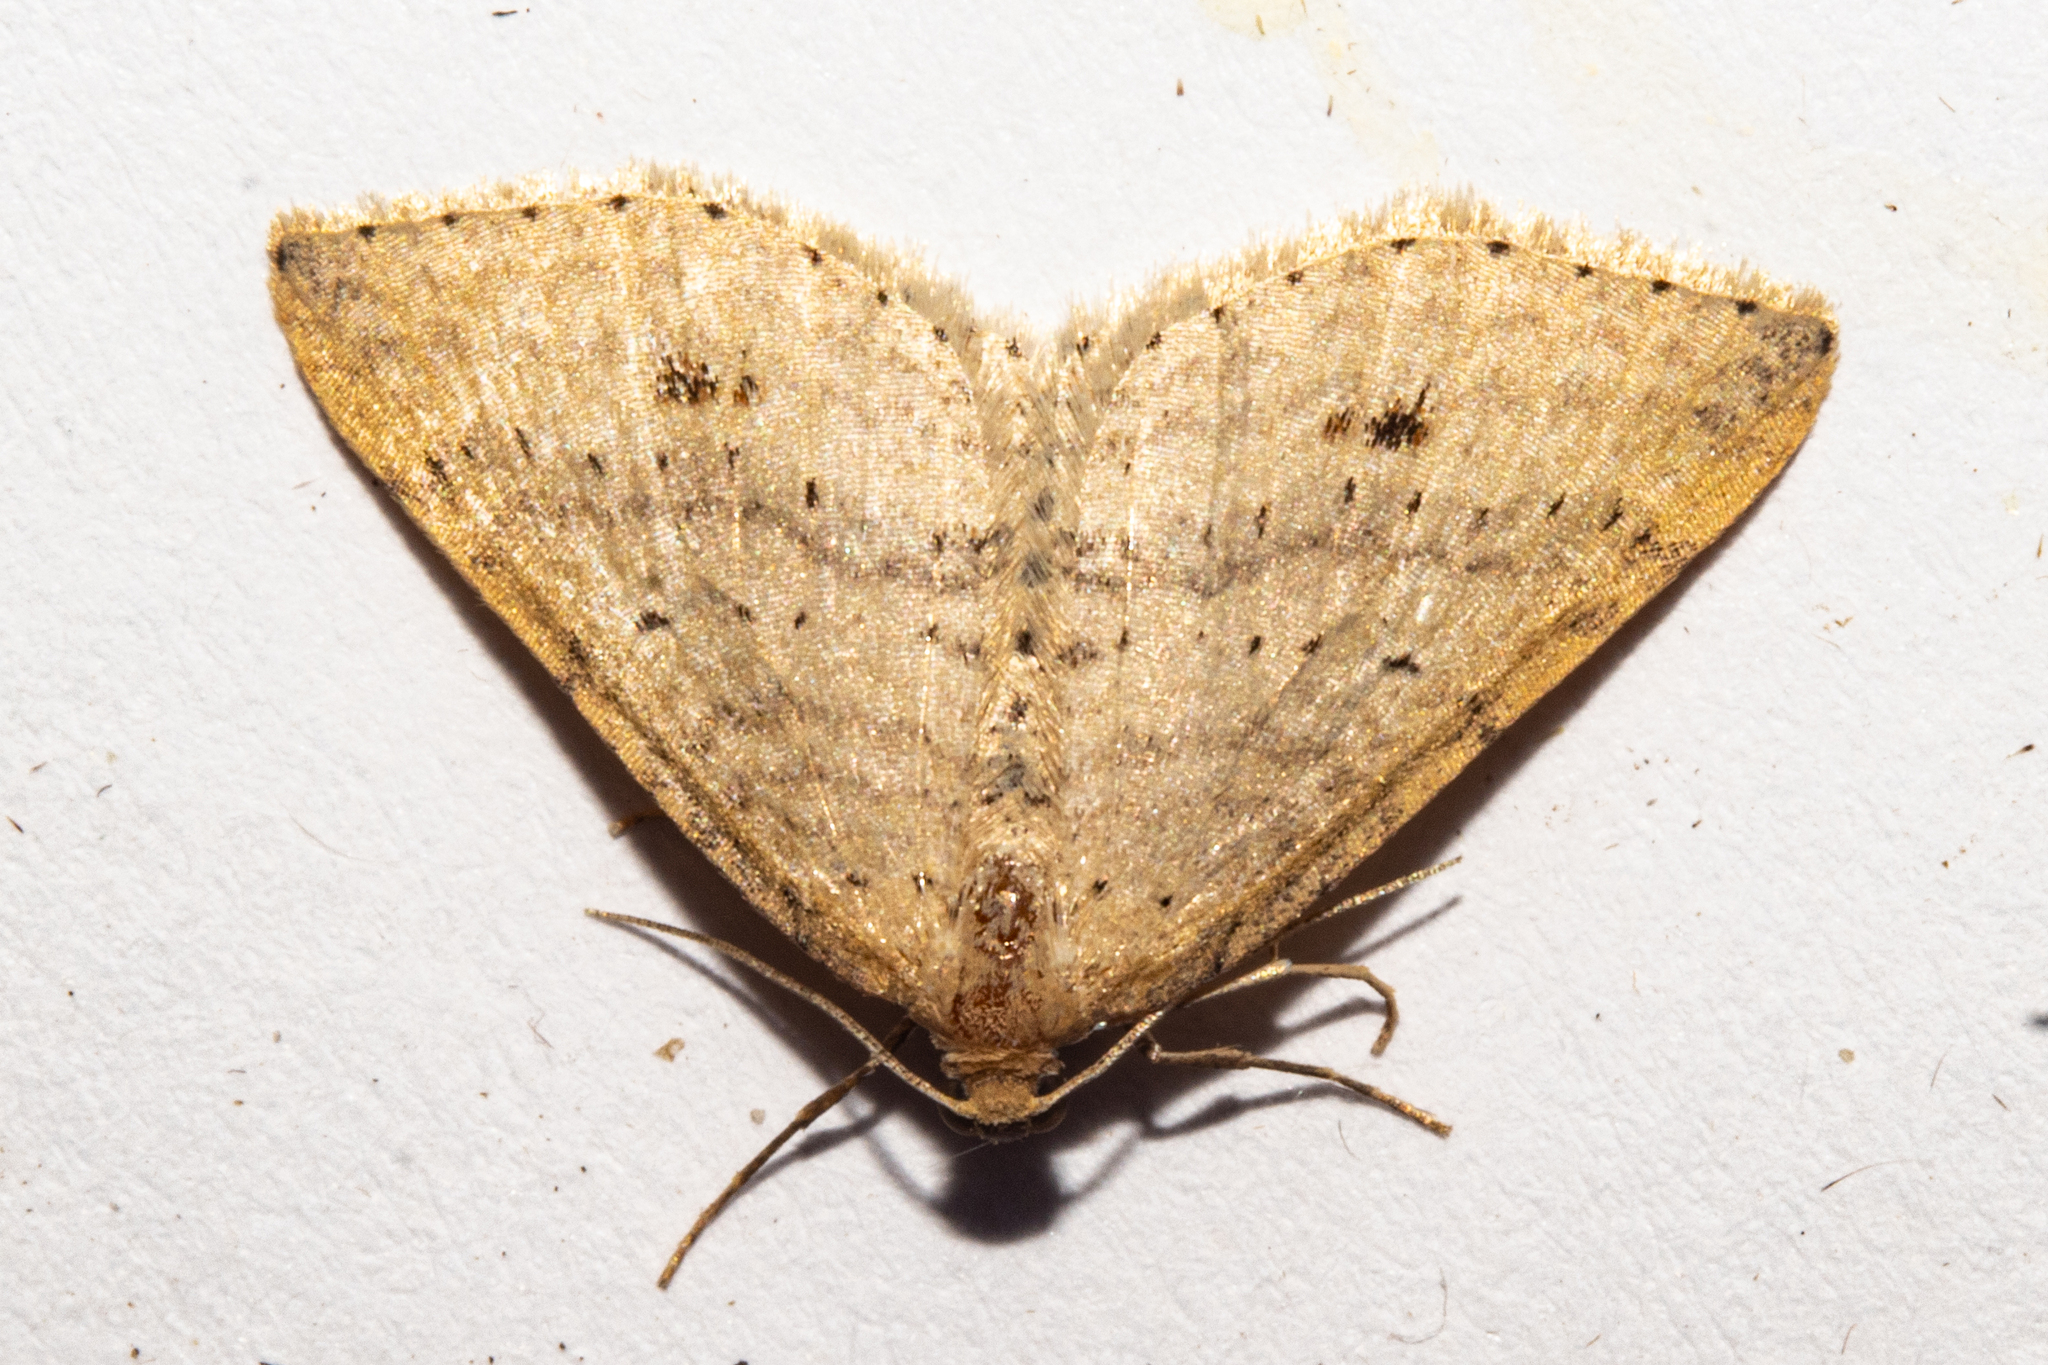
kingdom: Animalia
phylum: Arthropoda
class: Insecta
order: Lepidoptera
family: Geometridae
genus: Epicyme
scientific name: Epicyme rubropunctaria
